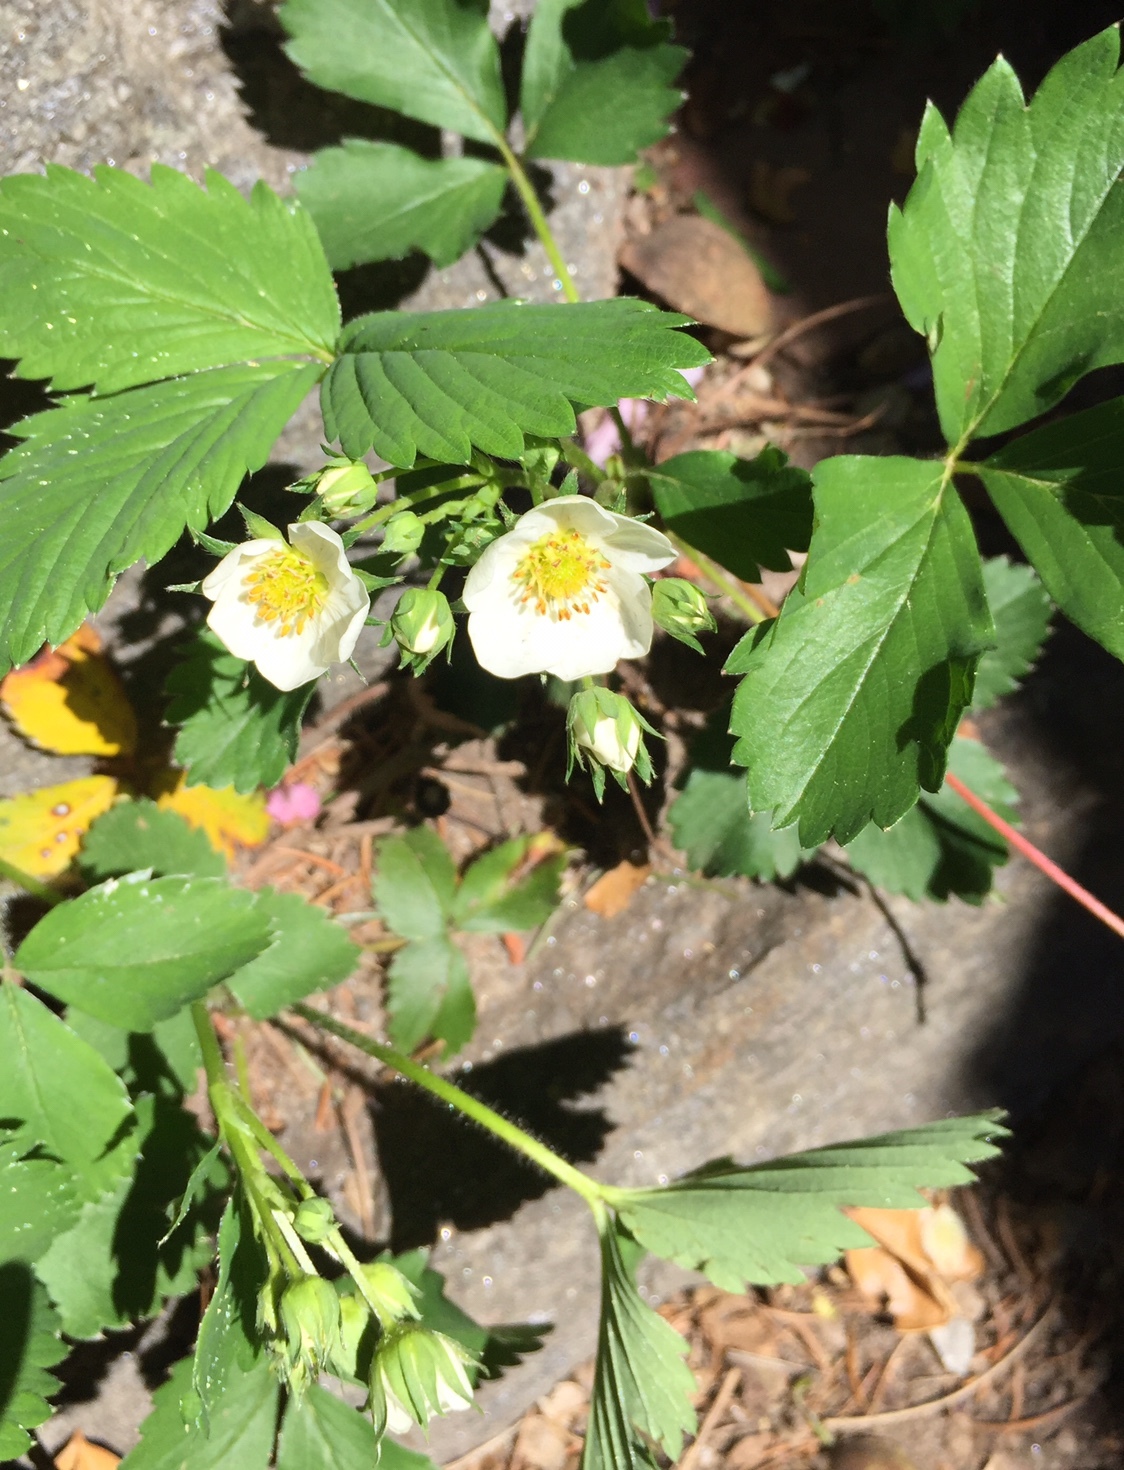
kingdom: Plantae
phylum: Tracheophyta
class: Magnoliopsida
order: Rosales
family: Rosaceae
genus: Fragaria
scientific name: Fragaria virginiana
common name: Thickleaved wild strawberry
